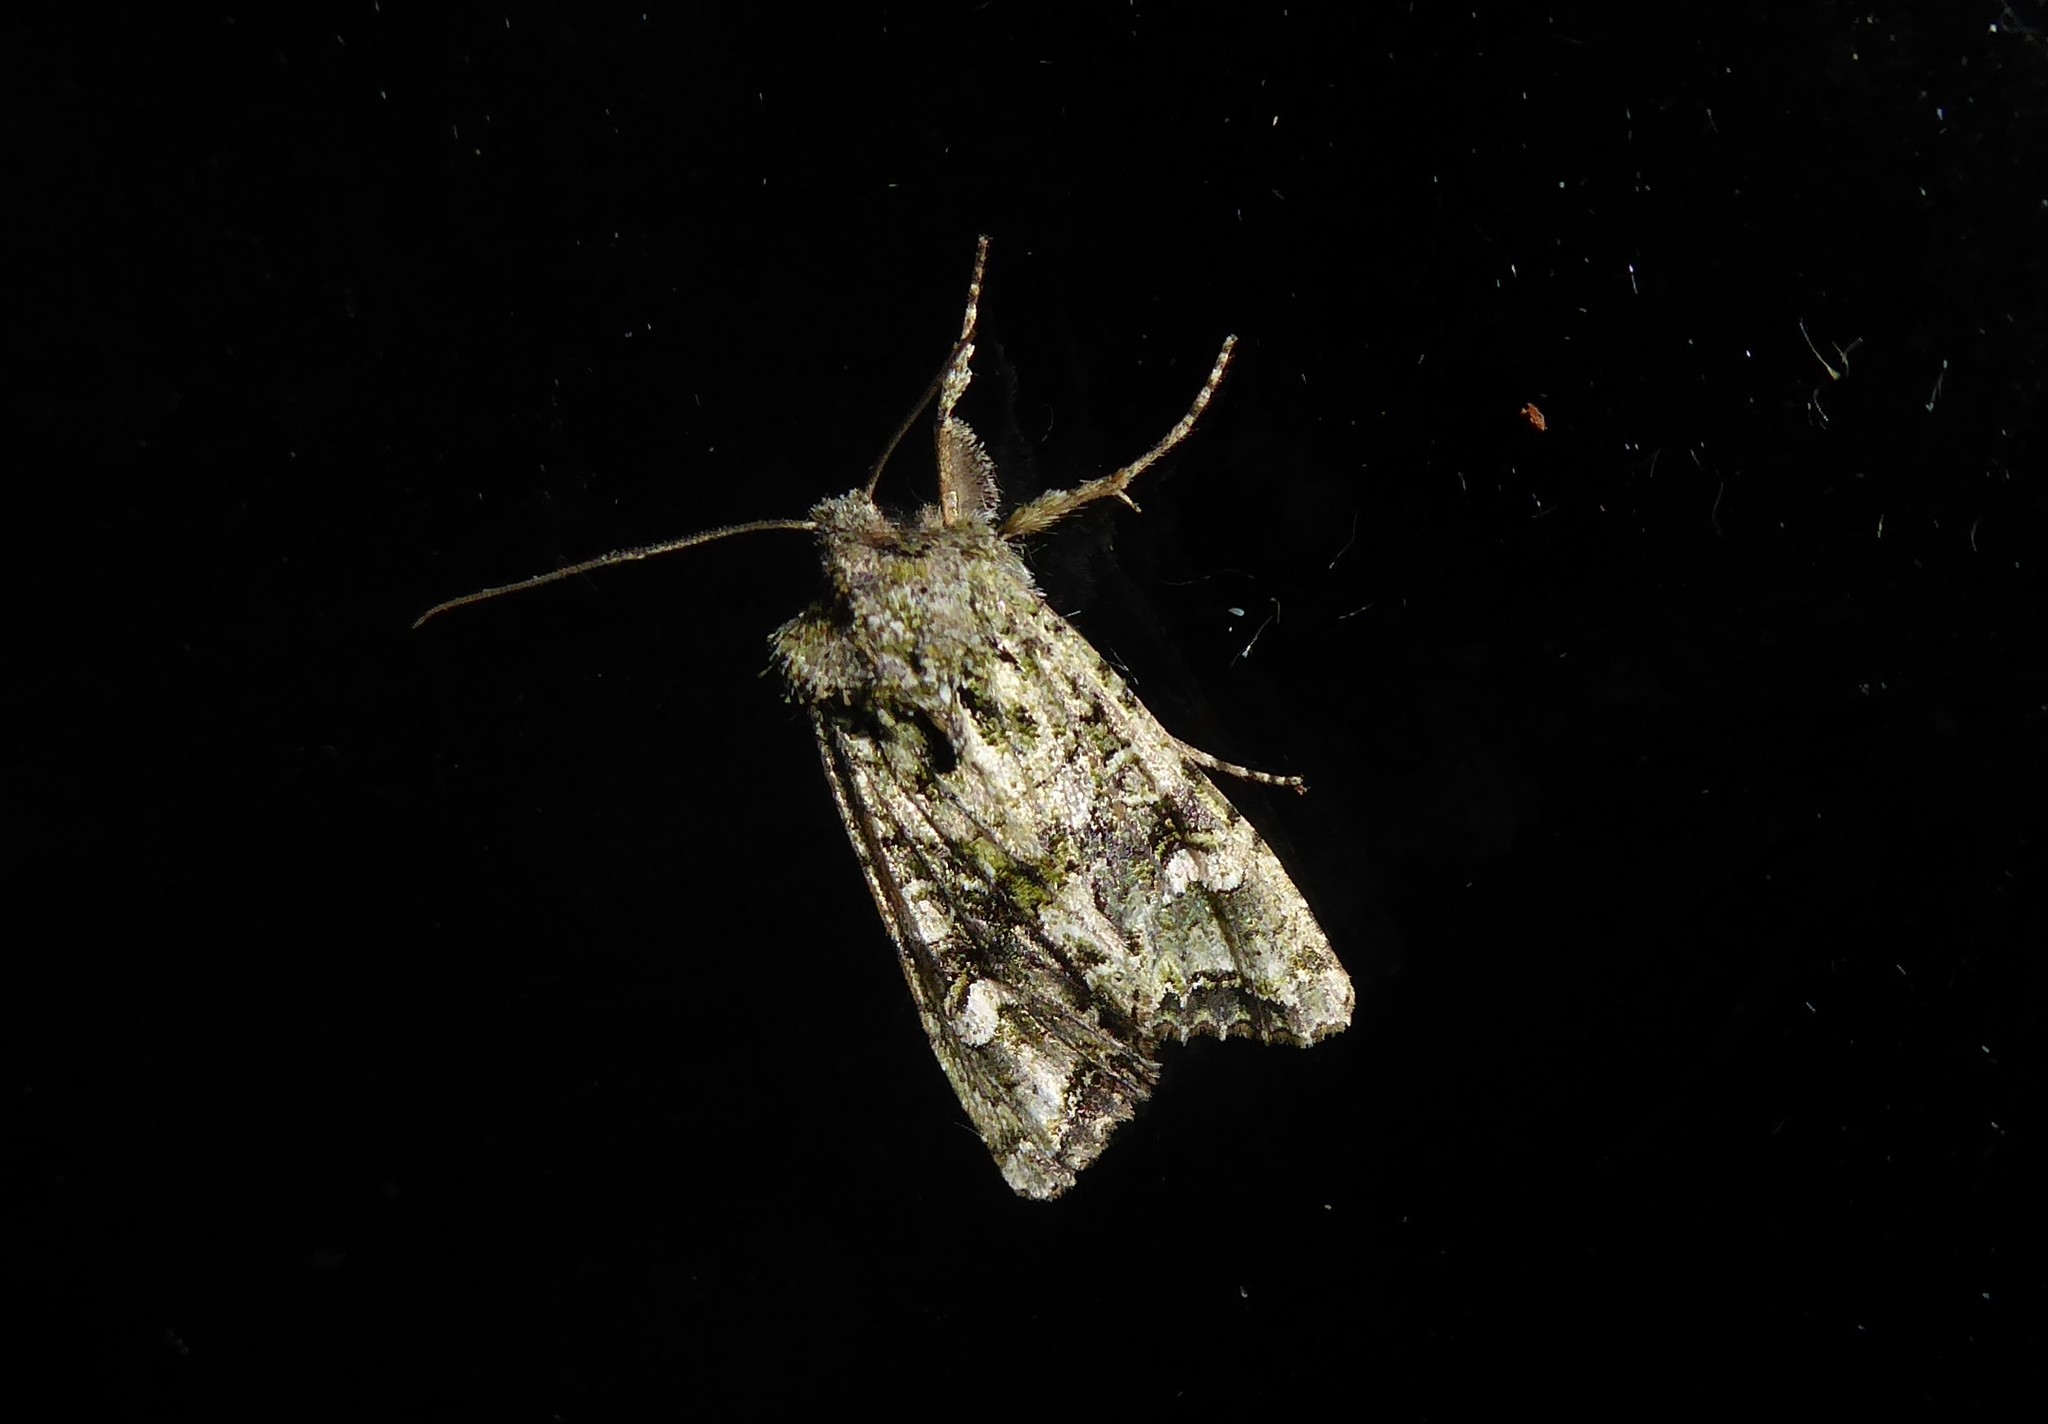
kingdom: Animalia
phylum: Arthropoda
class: Insecta
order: Lepidoptera
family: Noctuidae
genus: Ichneutica
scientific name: Ichneutica
